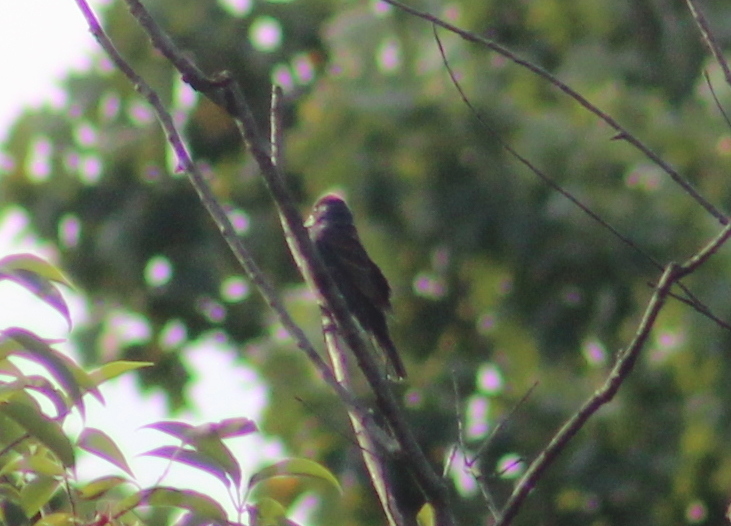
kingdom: Animalia
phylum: Chordata
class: Aves
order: Passeriformes
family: Cardinalidae
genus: Passerina
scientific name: Passerina caerulea
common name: Blue grosbeak
